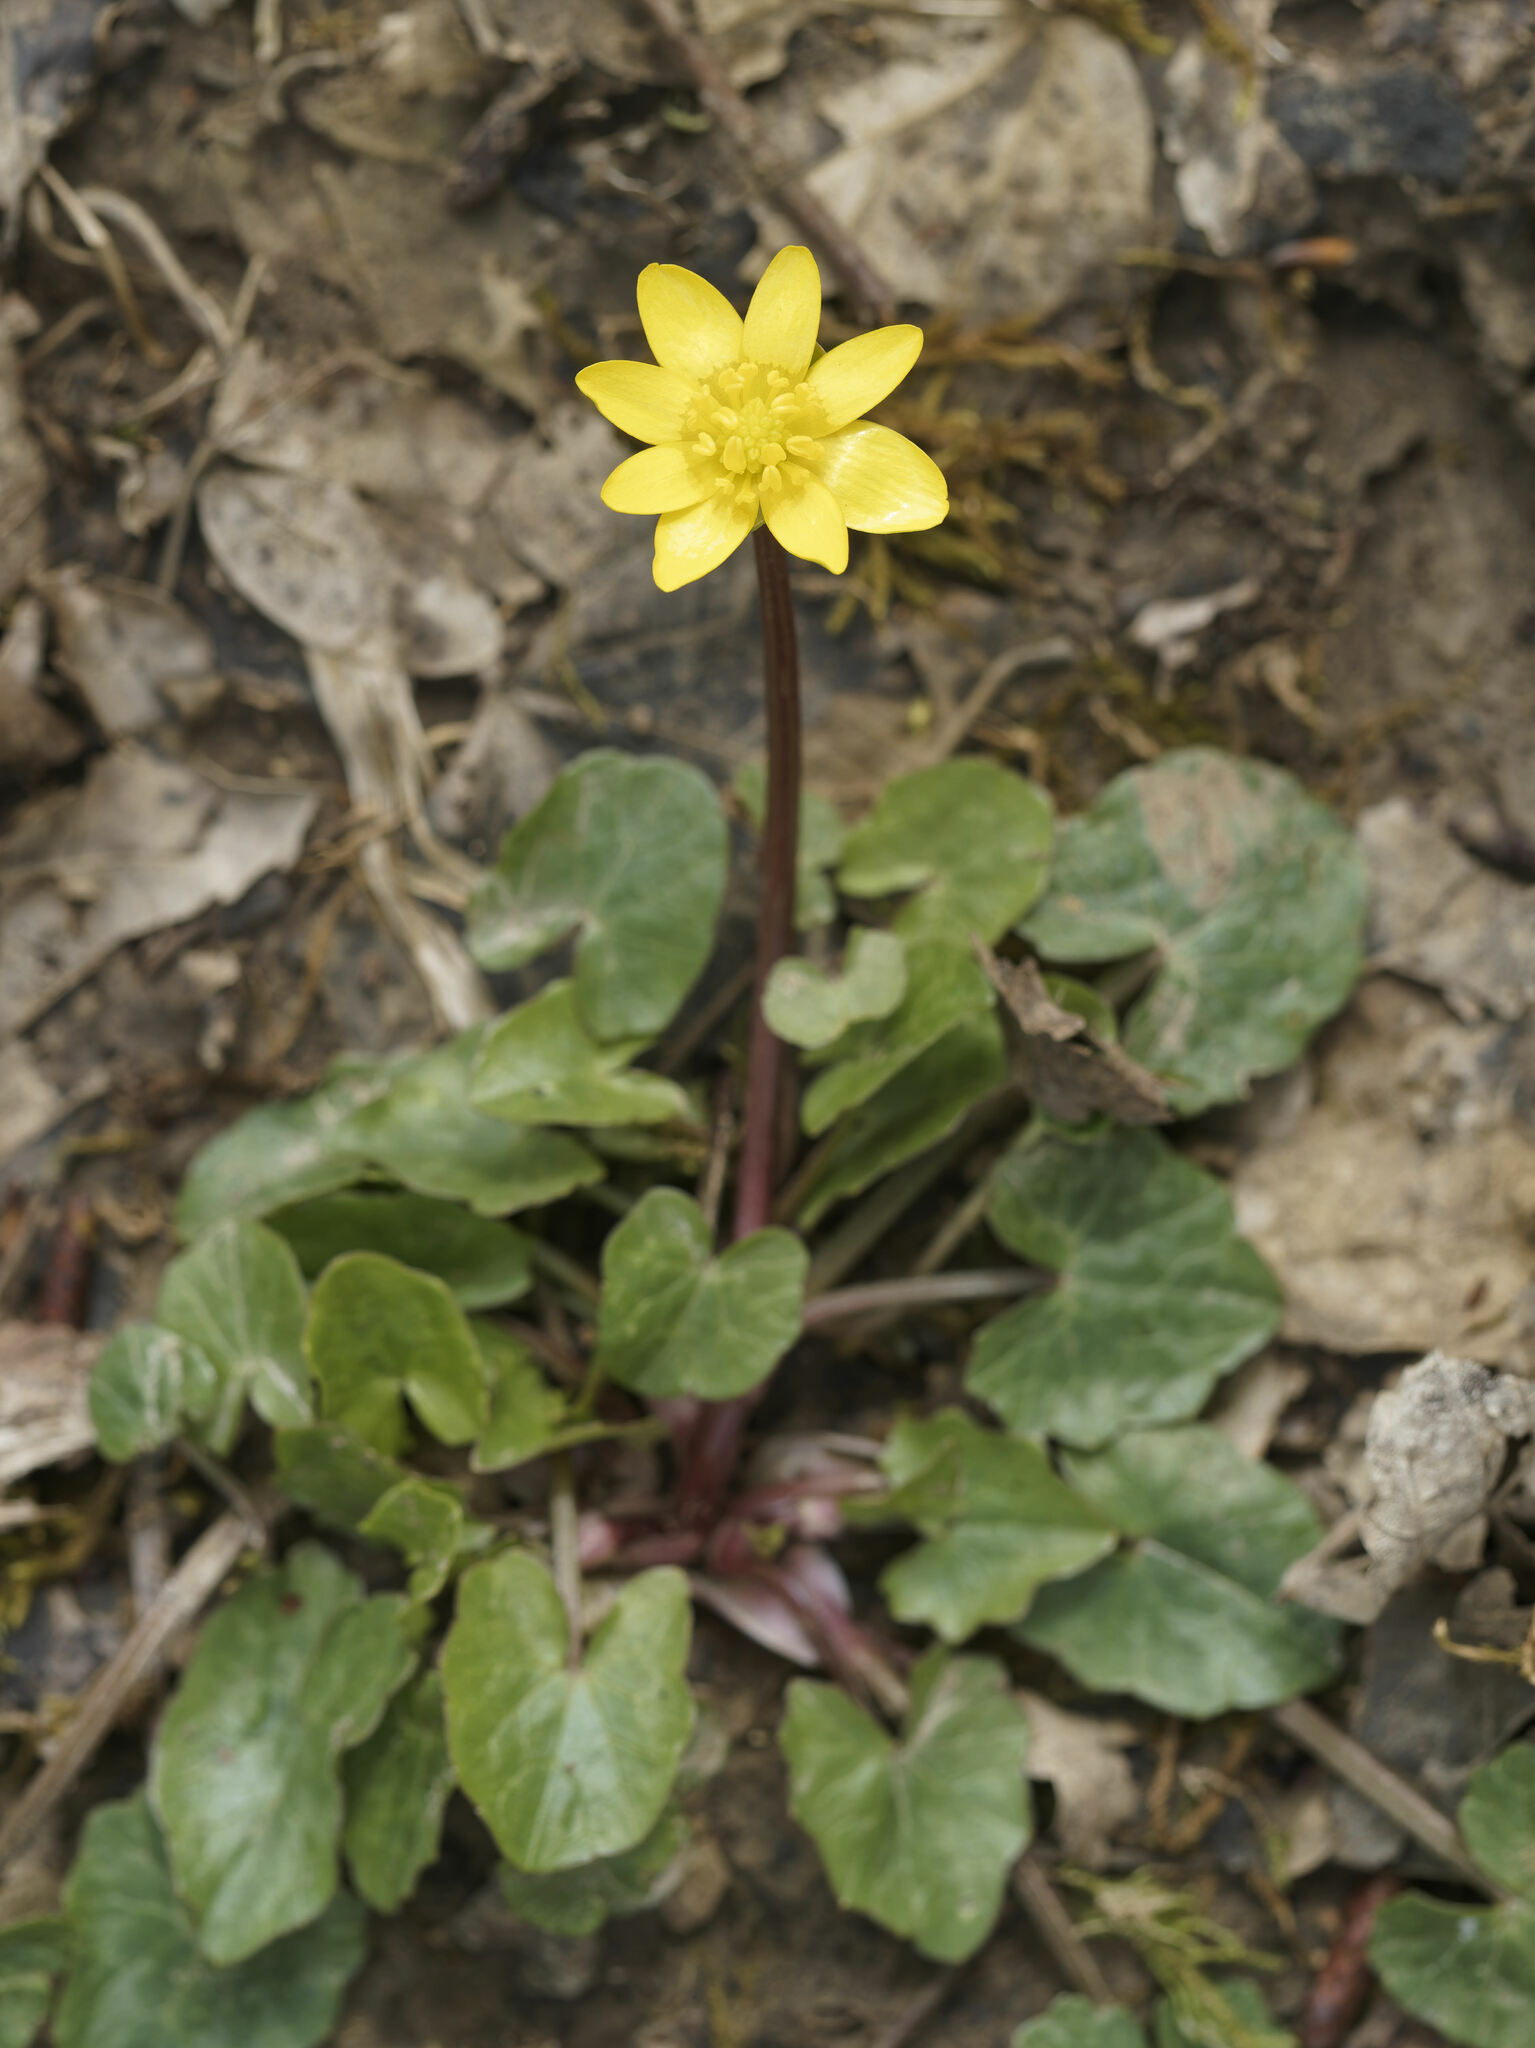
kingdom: Plantae
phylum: Tracheophyta
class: Magnoliopsida
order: Ranunculales
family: Ranunculaceae
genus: Ficaria
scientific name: Ficaria verna
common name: Lesser celandine
